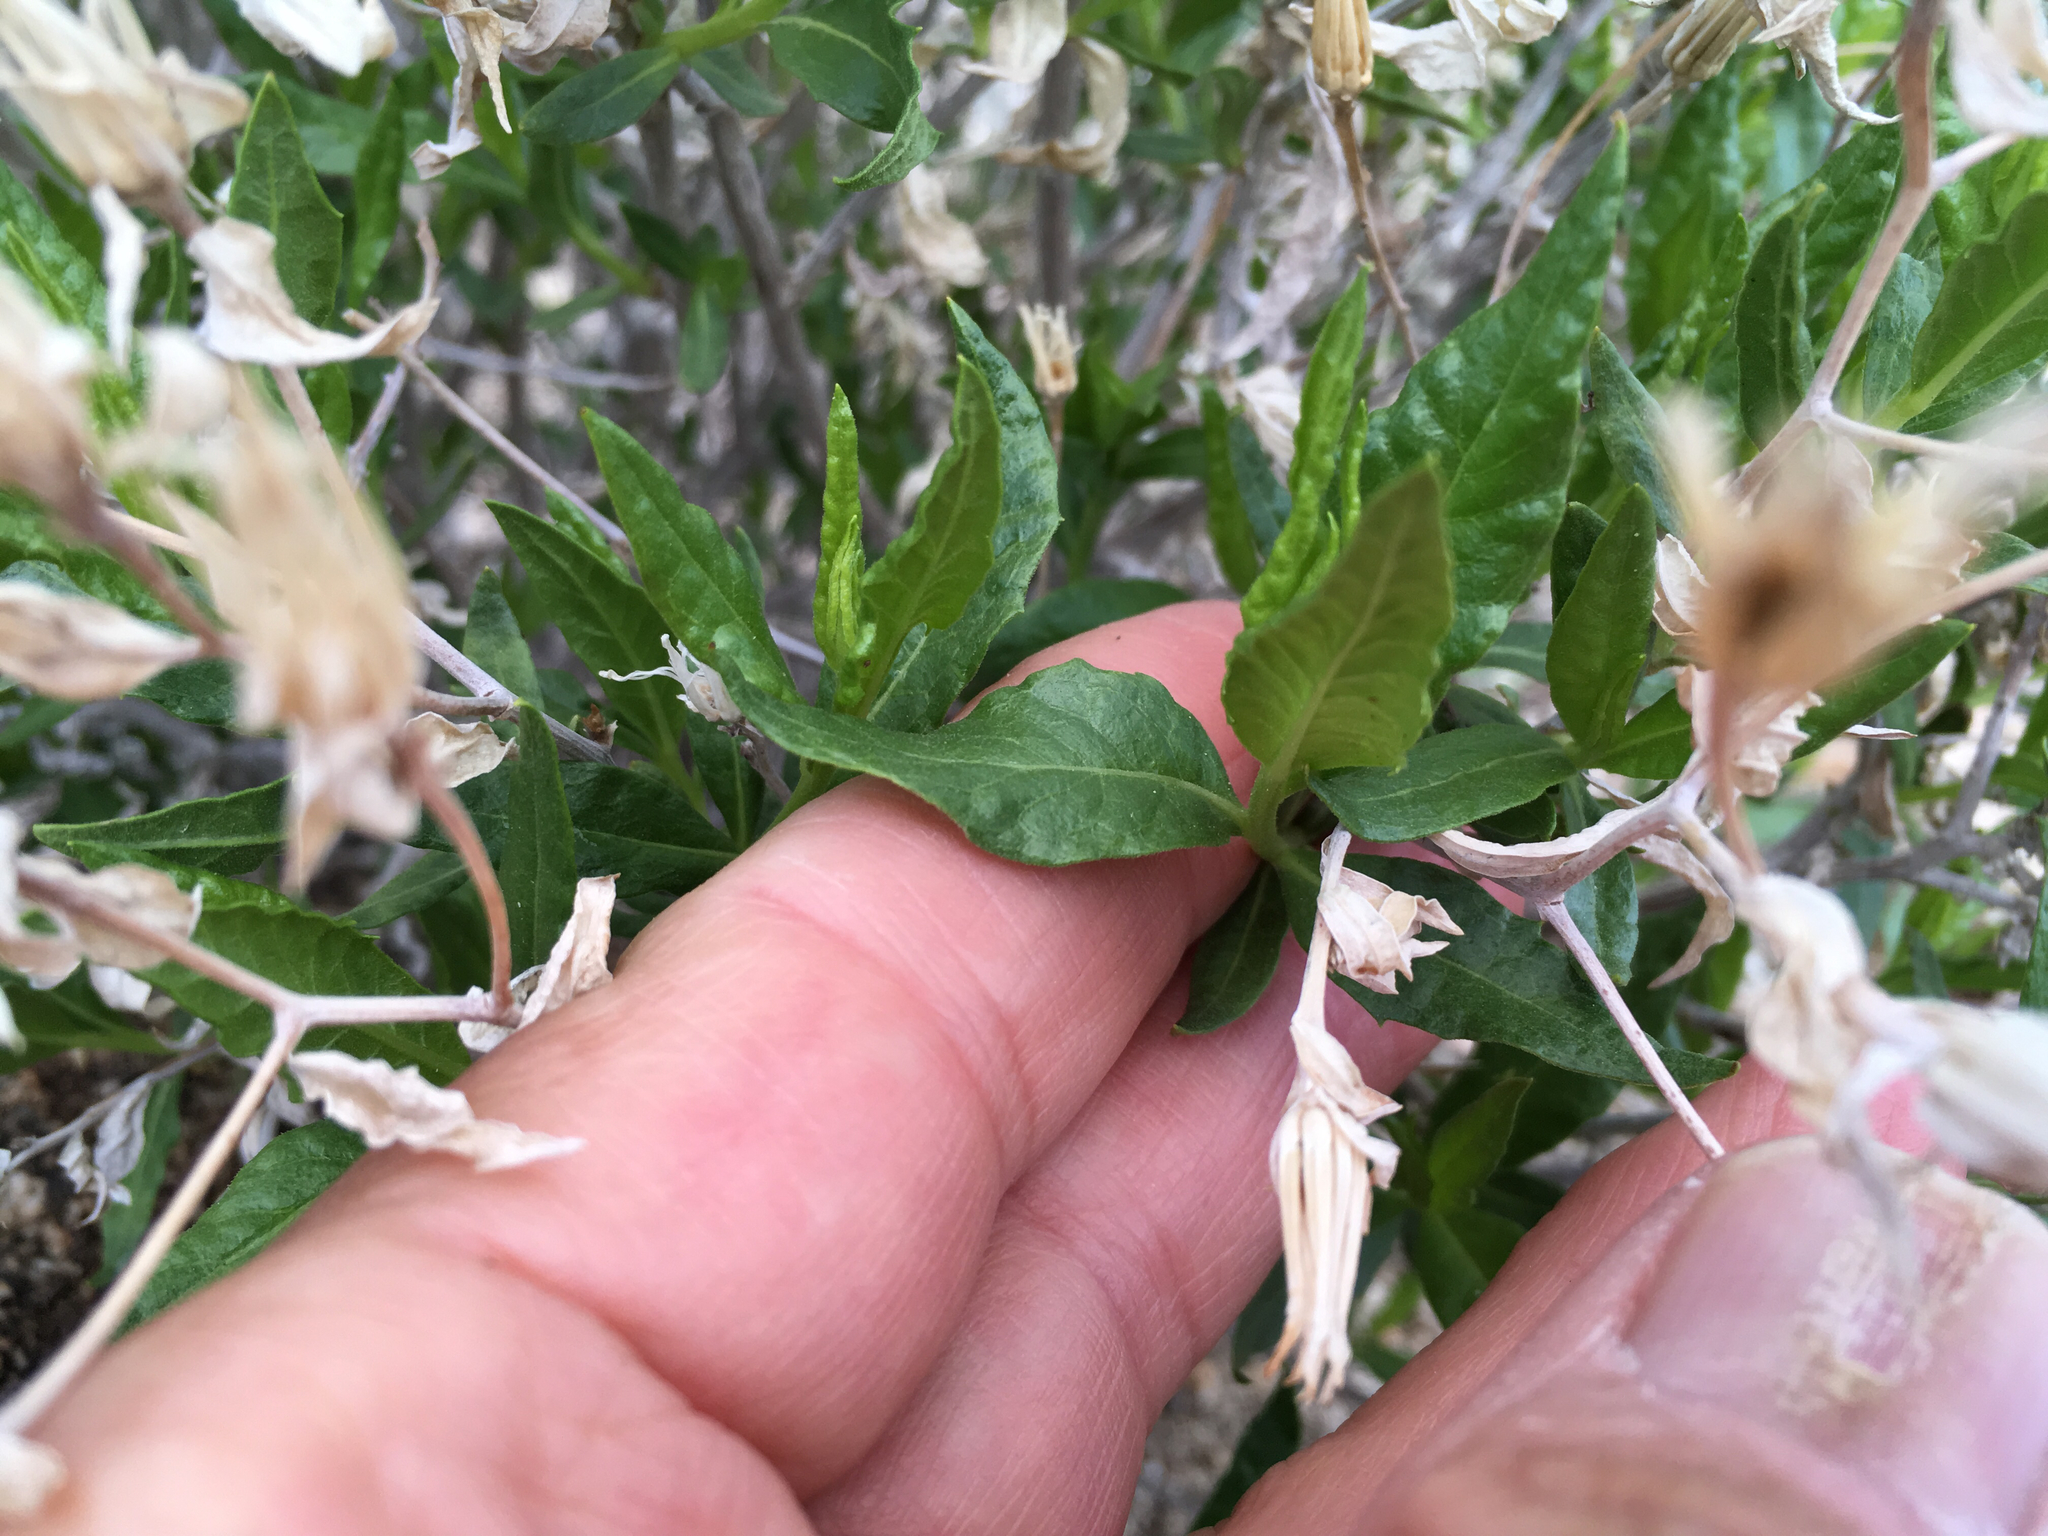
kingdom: Plantae
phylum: Tracheophyta
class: Magnoliopsida
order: Asterales
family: Asteraceae
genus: Trixis
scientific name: Trixis californica
